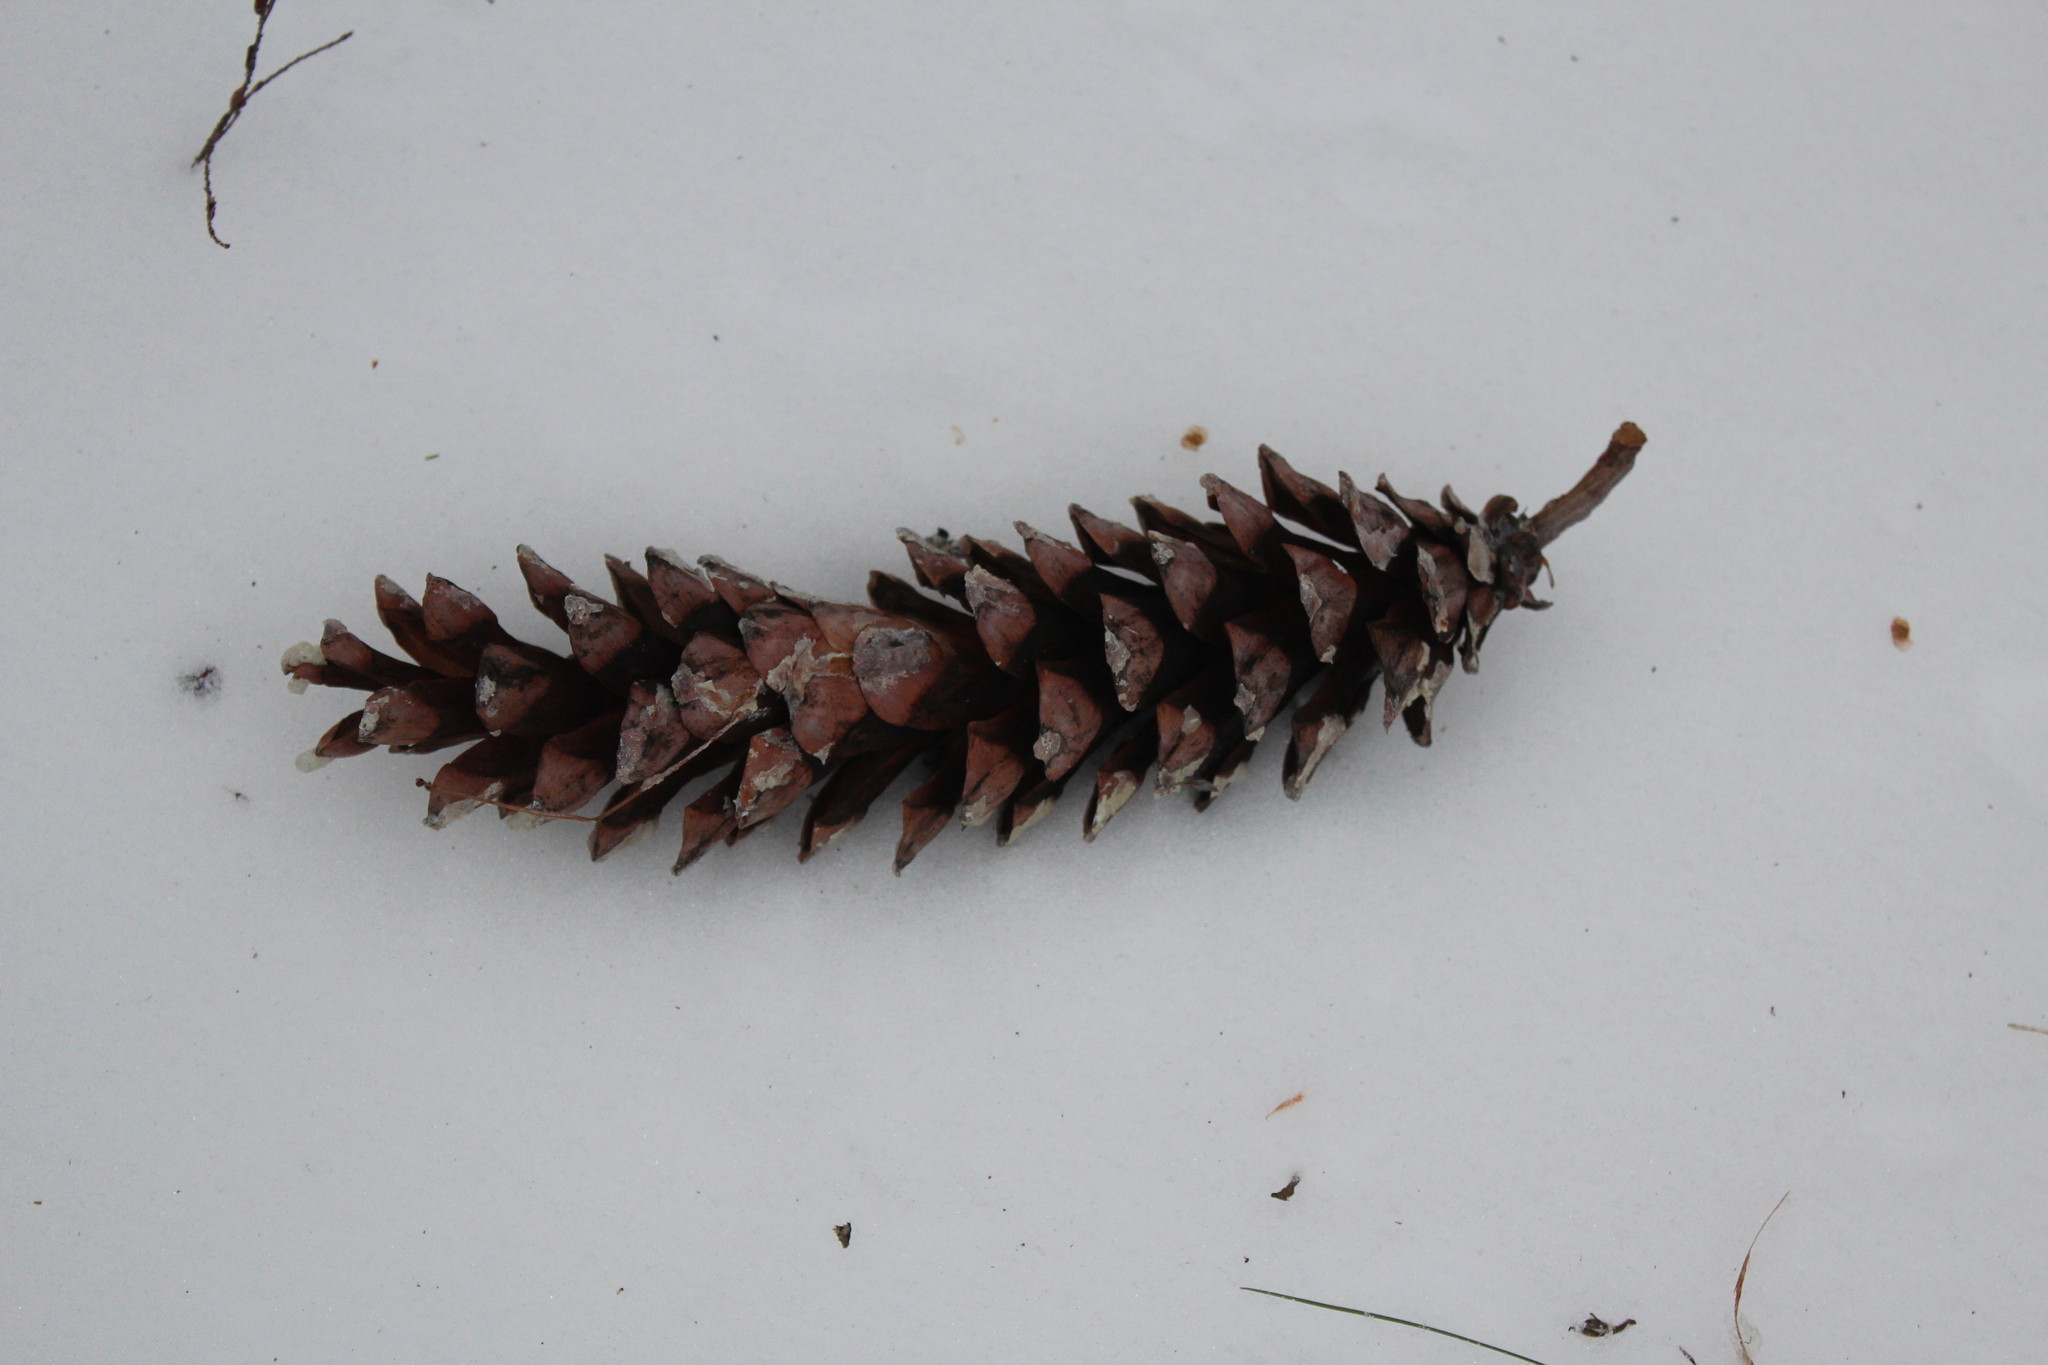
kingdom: Plantae
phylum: Tracheophyta
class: Pinopsida
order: Pinales
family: Pinaceae
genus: Pinus
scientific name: Pinus strobus
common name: Weymouth pine
